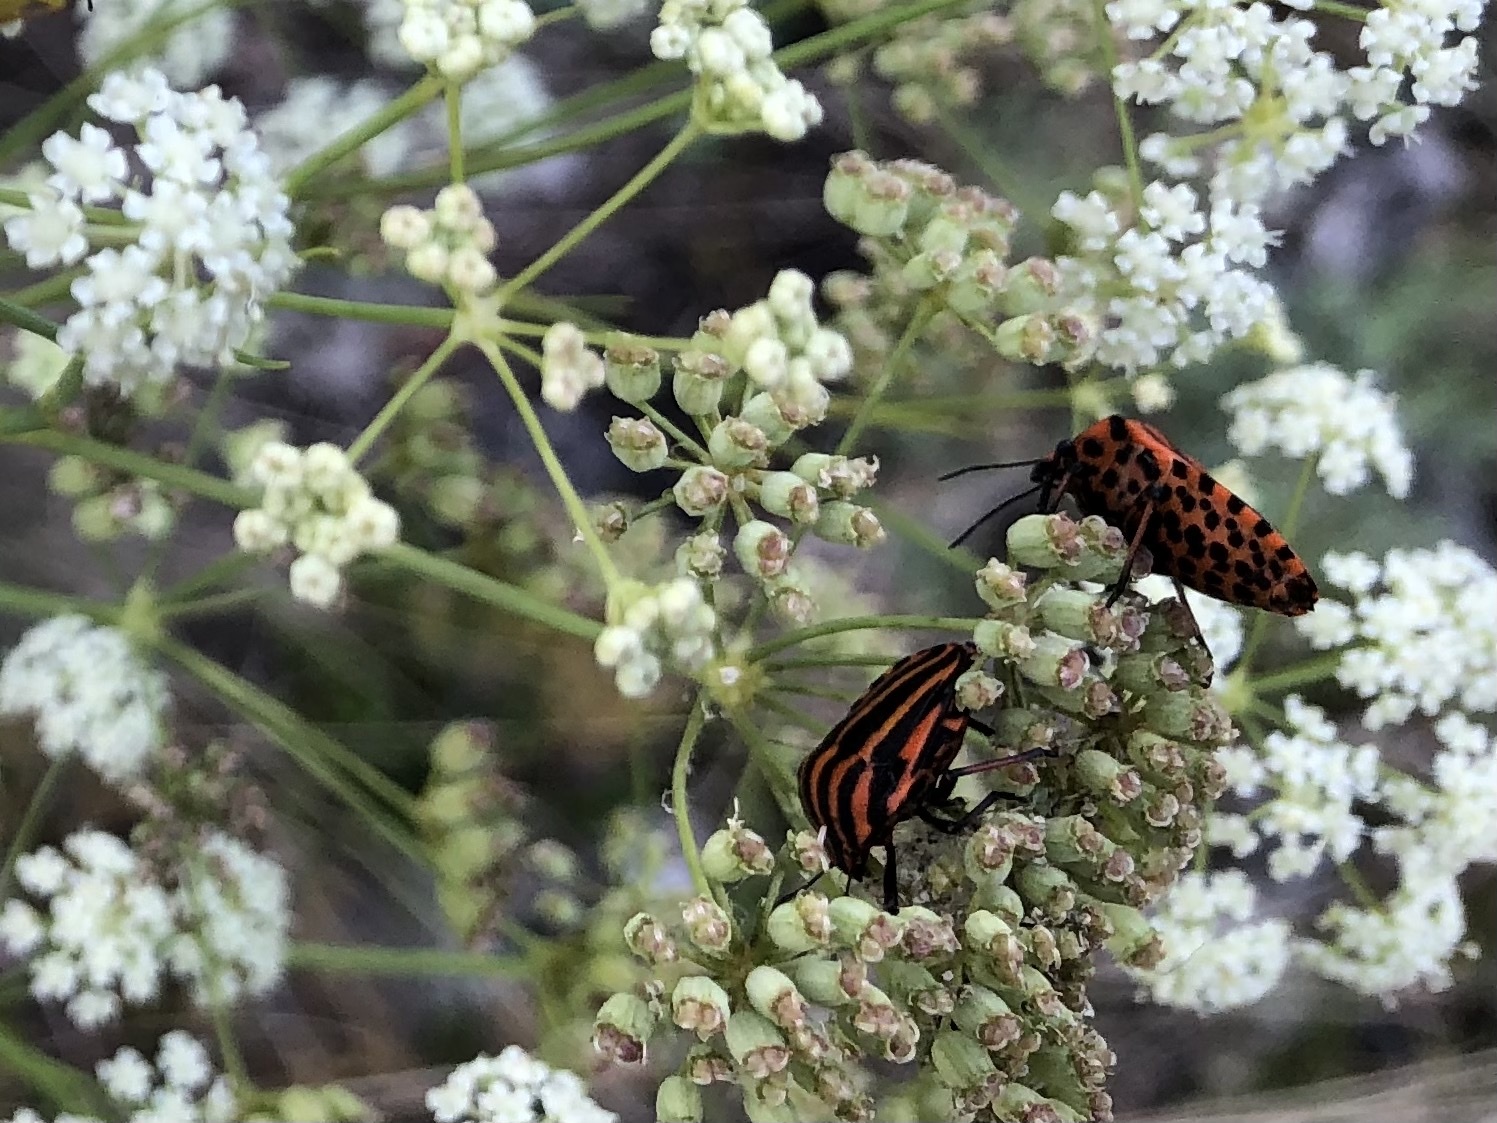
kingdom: Animalia
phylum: Arthropoda
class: Insecta
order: Hemiptera
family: Pentatomidae
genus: Graphosoma
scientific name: Graphosoma italicum
